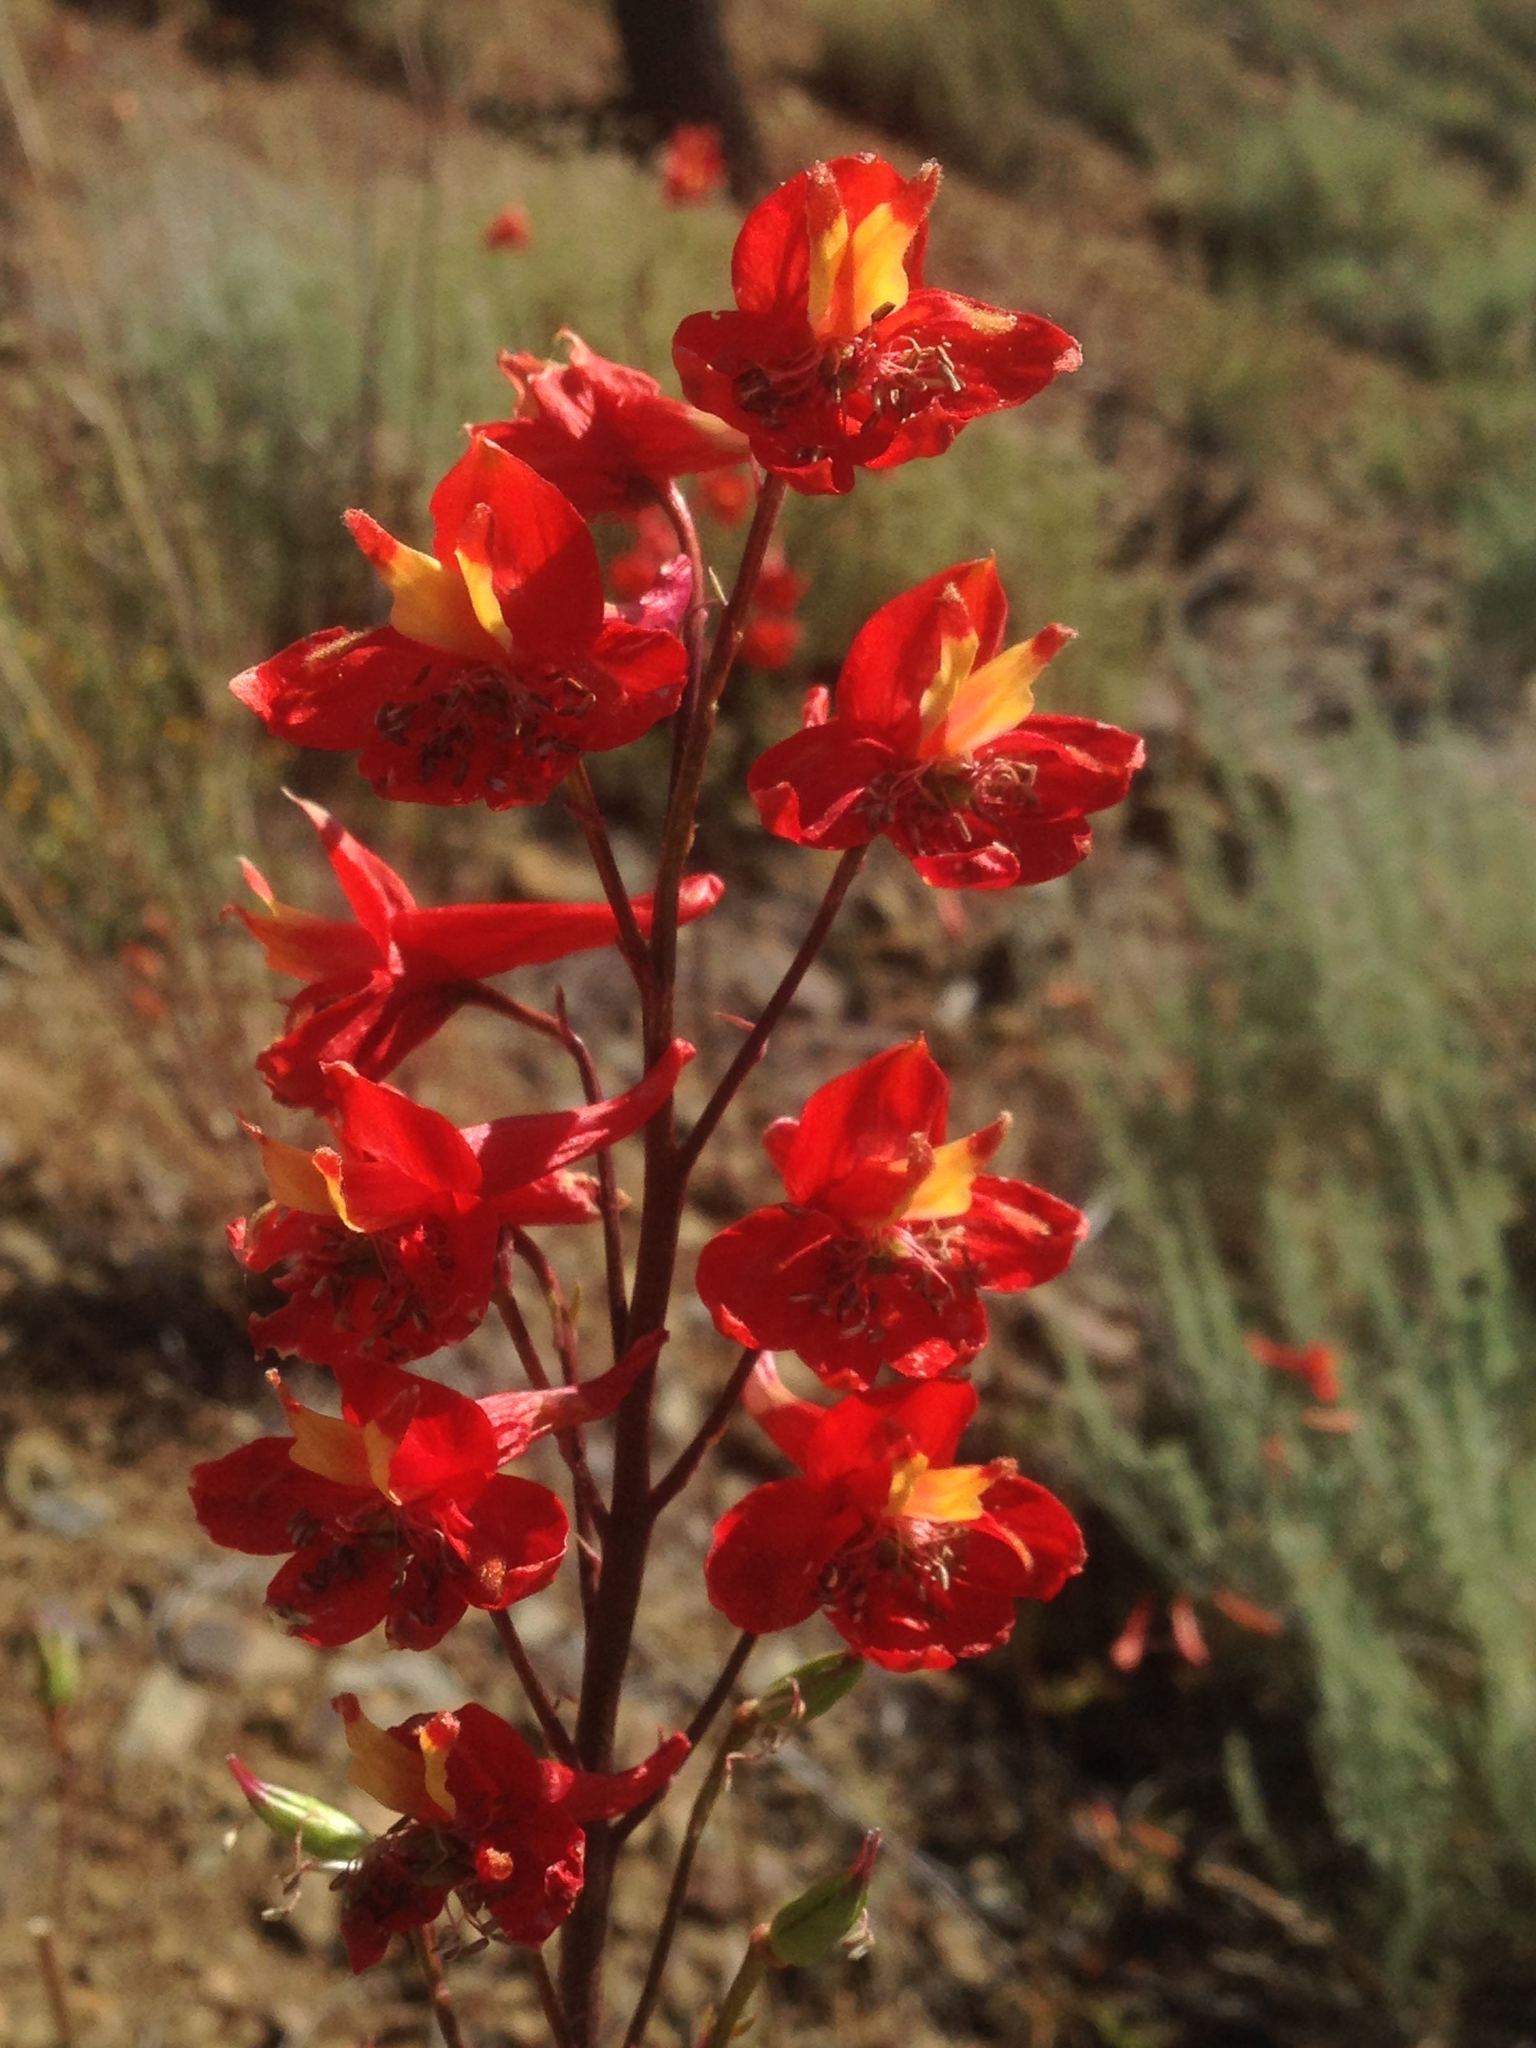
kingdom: Plantae
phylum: Tracheophyta
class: Magnoliopsida
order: Ranunculales
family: Ranunculaceae
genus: Delphinium
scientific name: Delphinium cardinale
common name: Scarlet larkspur
